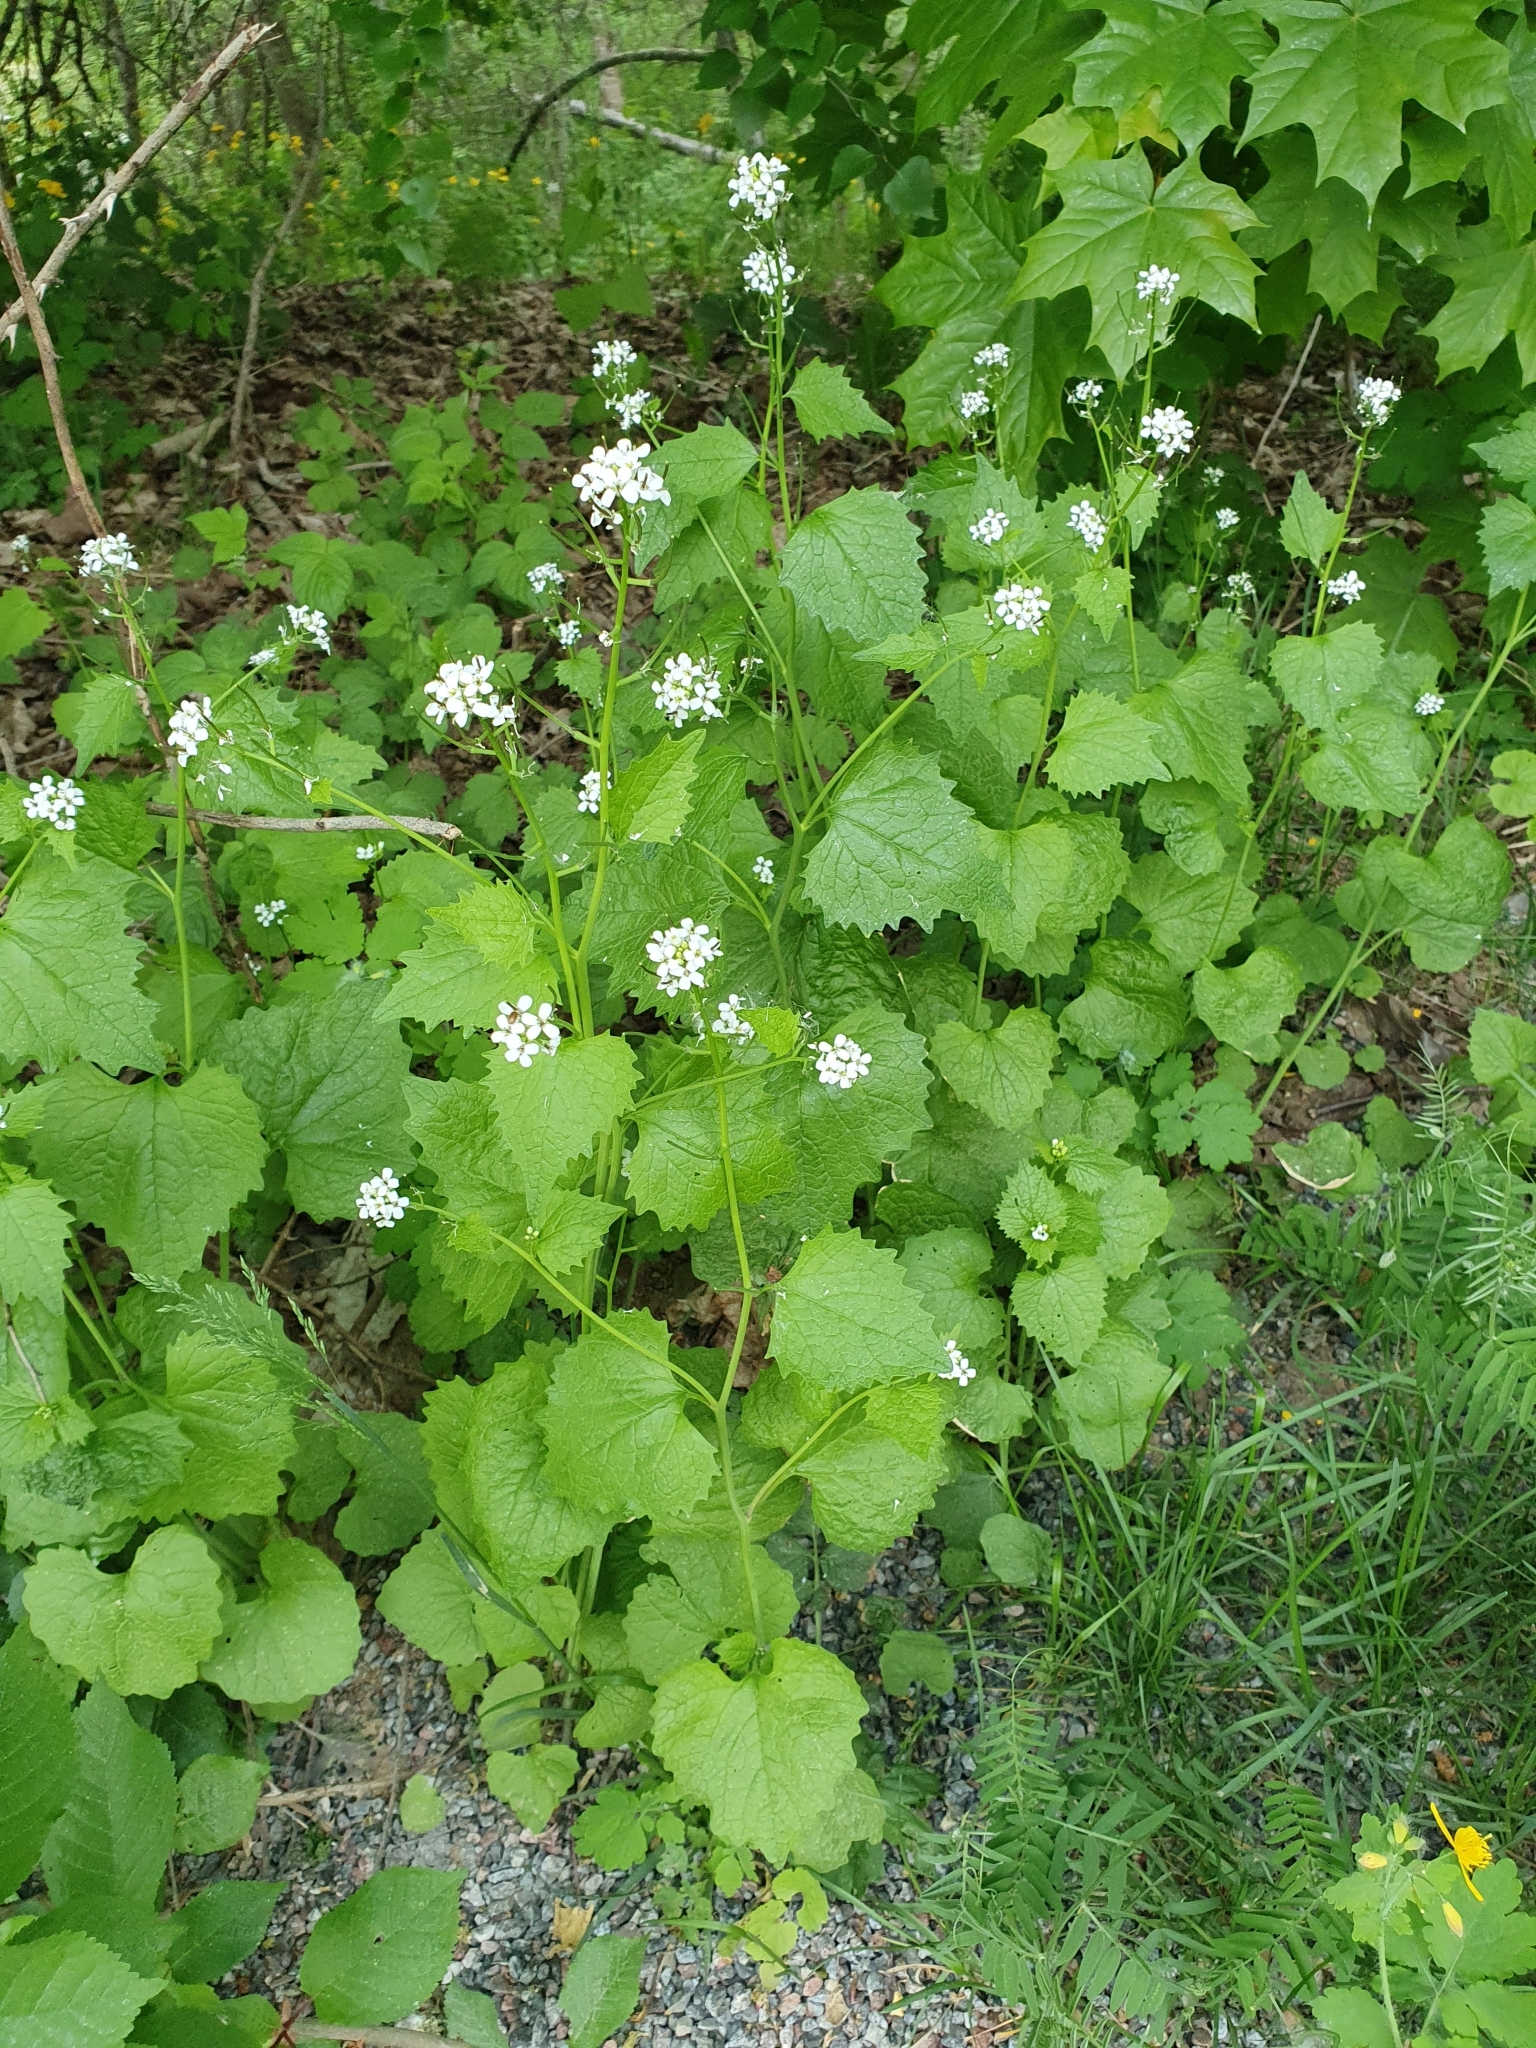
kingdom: Plantae
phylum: Tracheophyta
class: Magnoliopsida
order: Brassicales
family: Brassicaceae
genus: Alliaria
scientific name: Alliaria petiolata
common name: Garlic mustard
